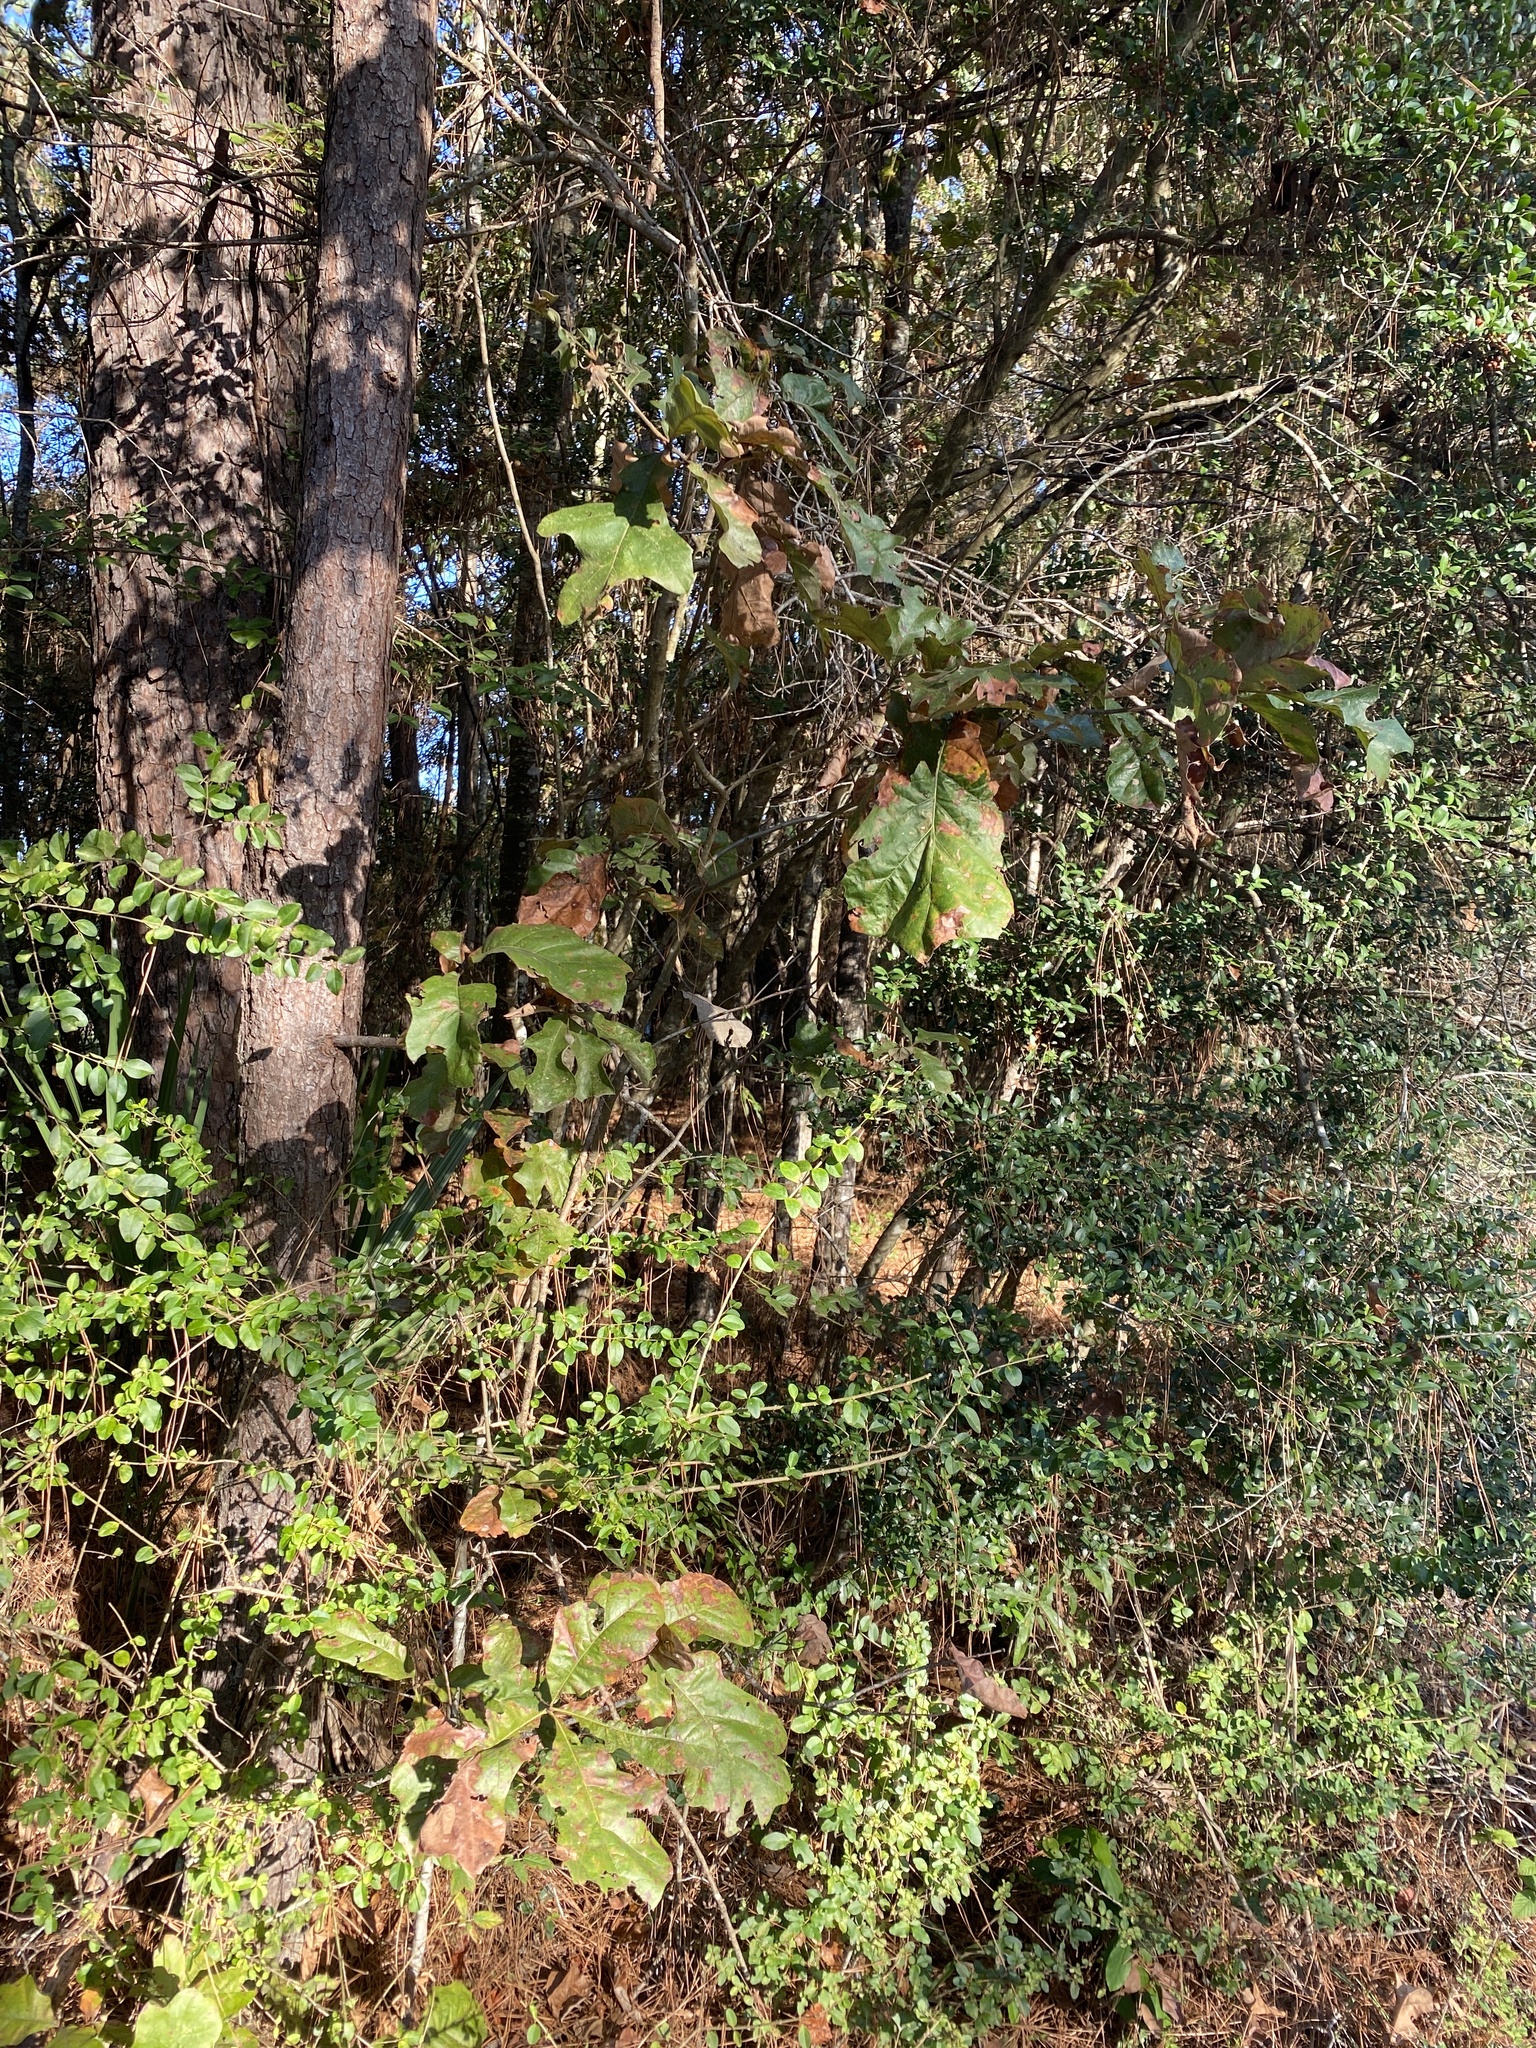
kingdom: Plantae
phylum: Tracheophyta
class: Magnoliopsida
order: Fagales
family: Fagaceae
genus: Quercus
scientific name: Quercus marilandica
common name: Blackjack oak
